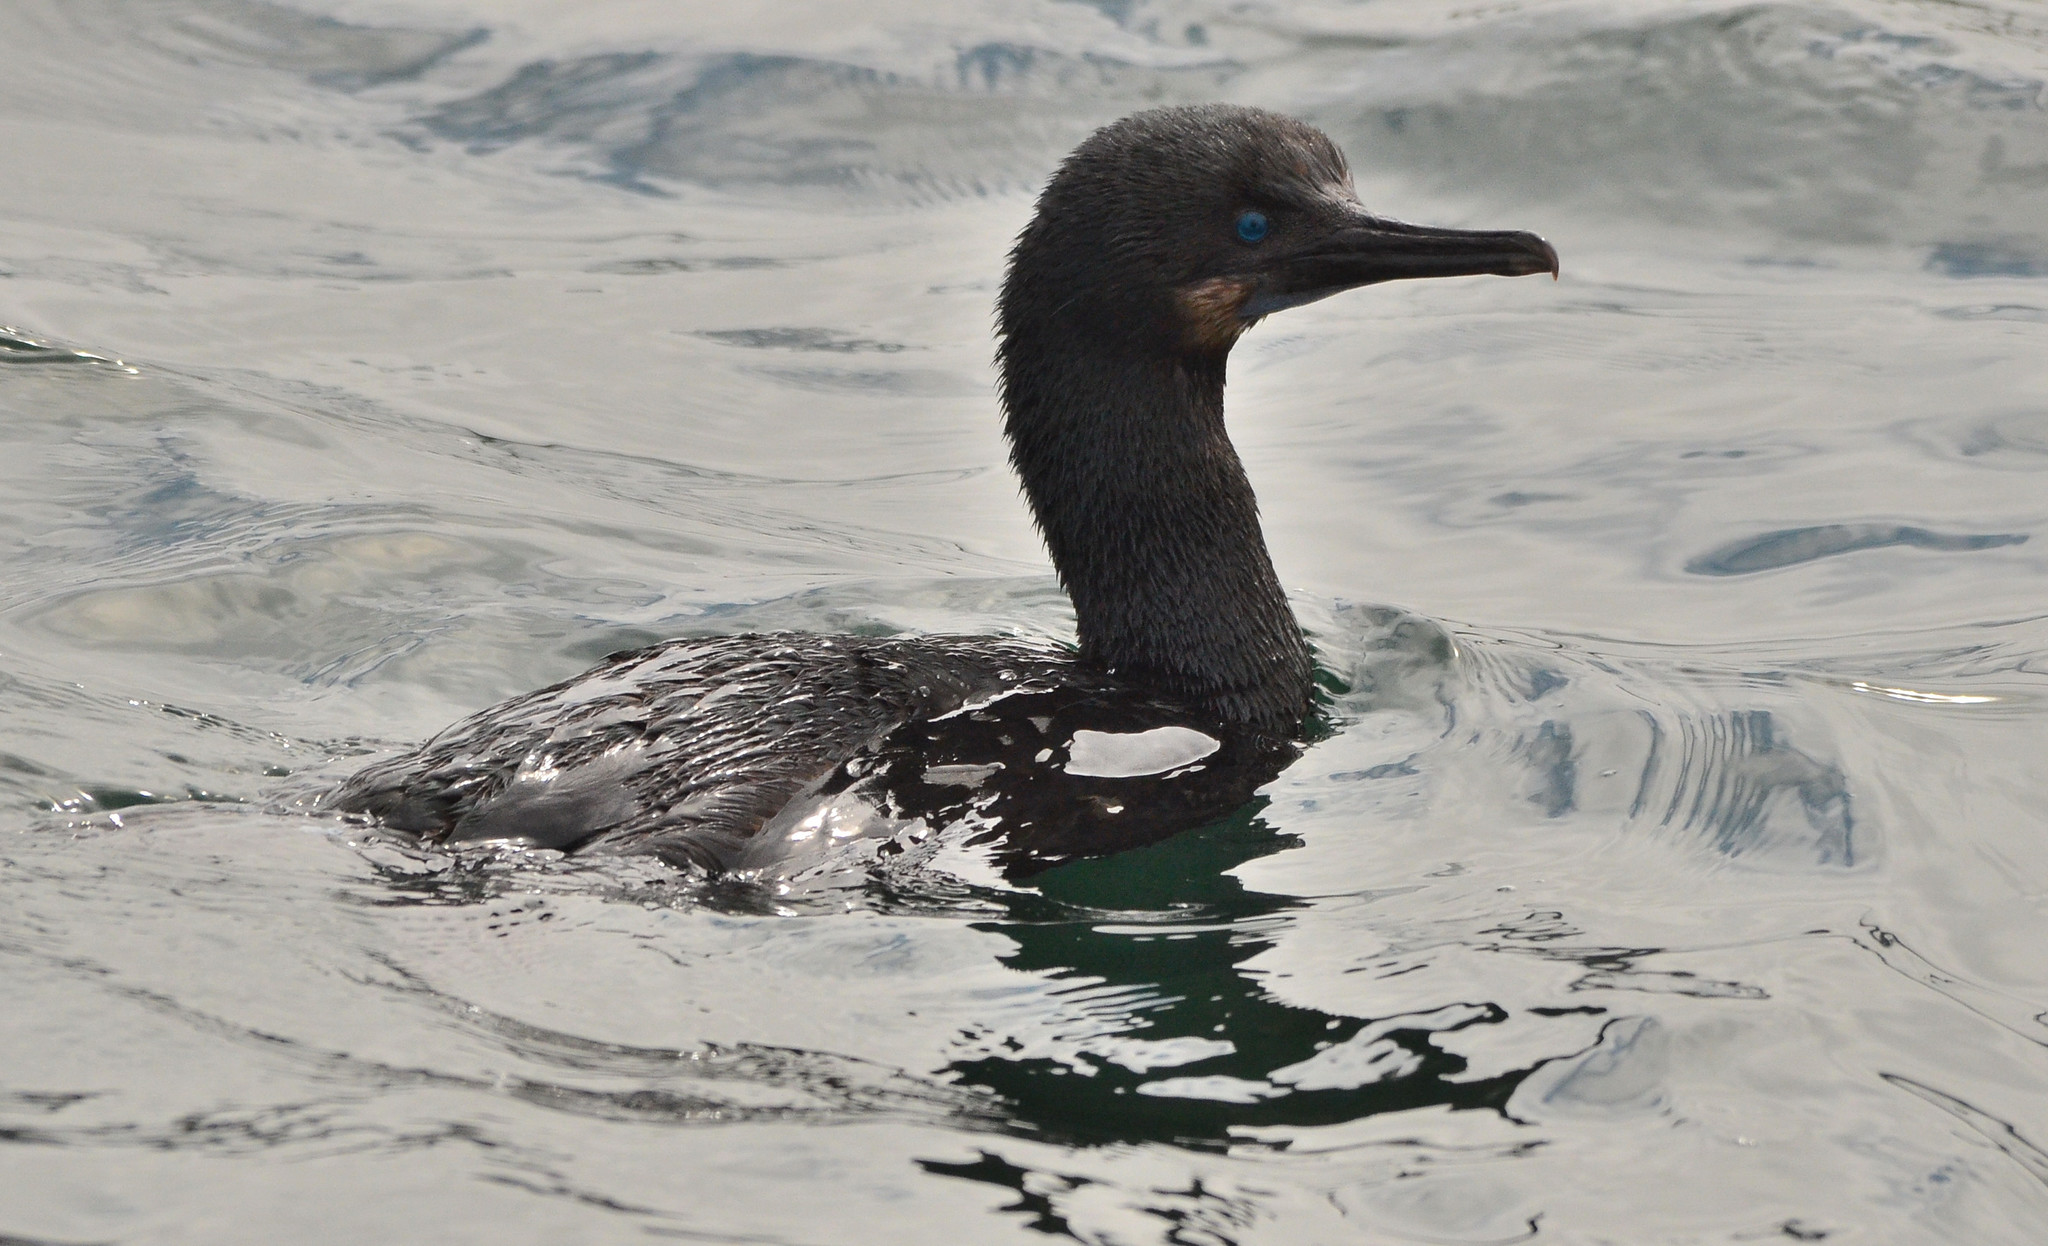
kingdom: Animalia
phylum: Chordata
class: Aves
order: Suliformes
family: Phalacrocoracidae
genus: Urile
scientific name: Urile penicillatus
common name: Brandt's cormorant
